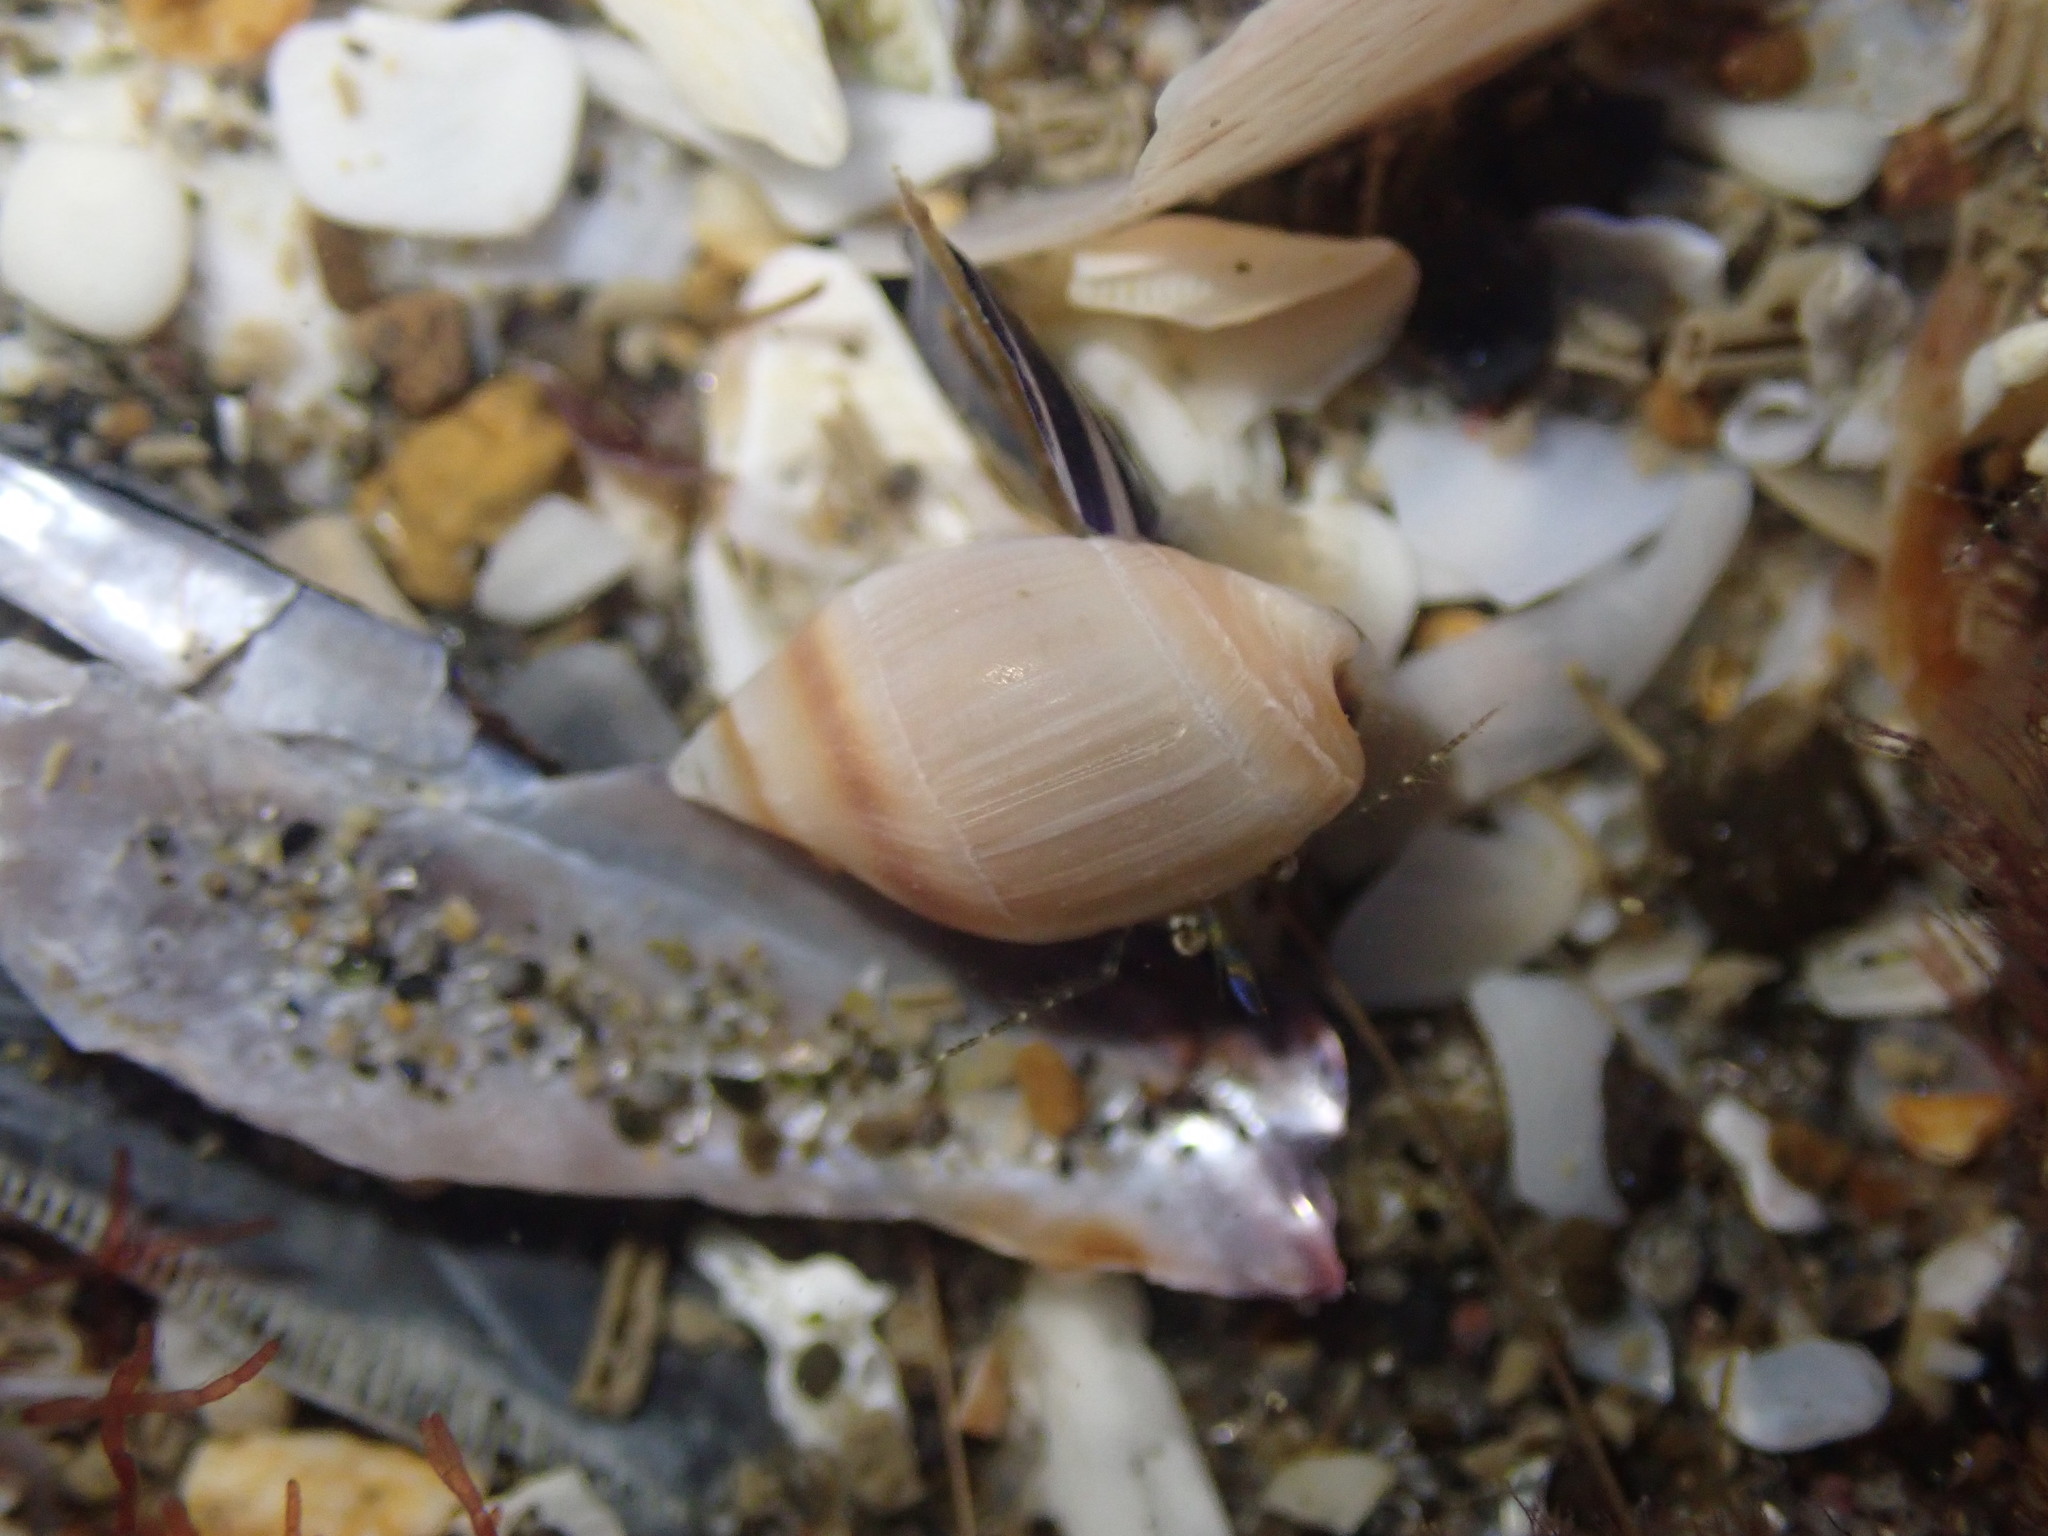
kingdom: Animalia
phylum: Mollusca
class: Gastropoda
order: Neogastropoda
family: Ancillariidae
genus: Amalda
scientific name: Amalda depressa
